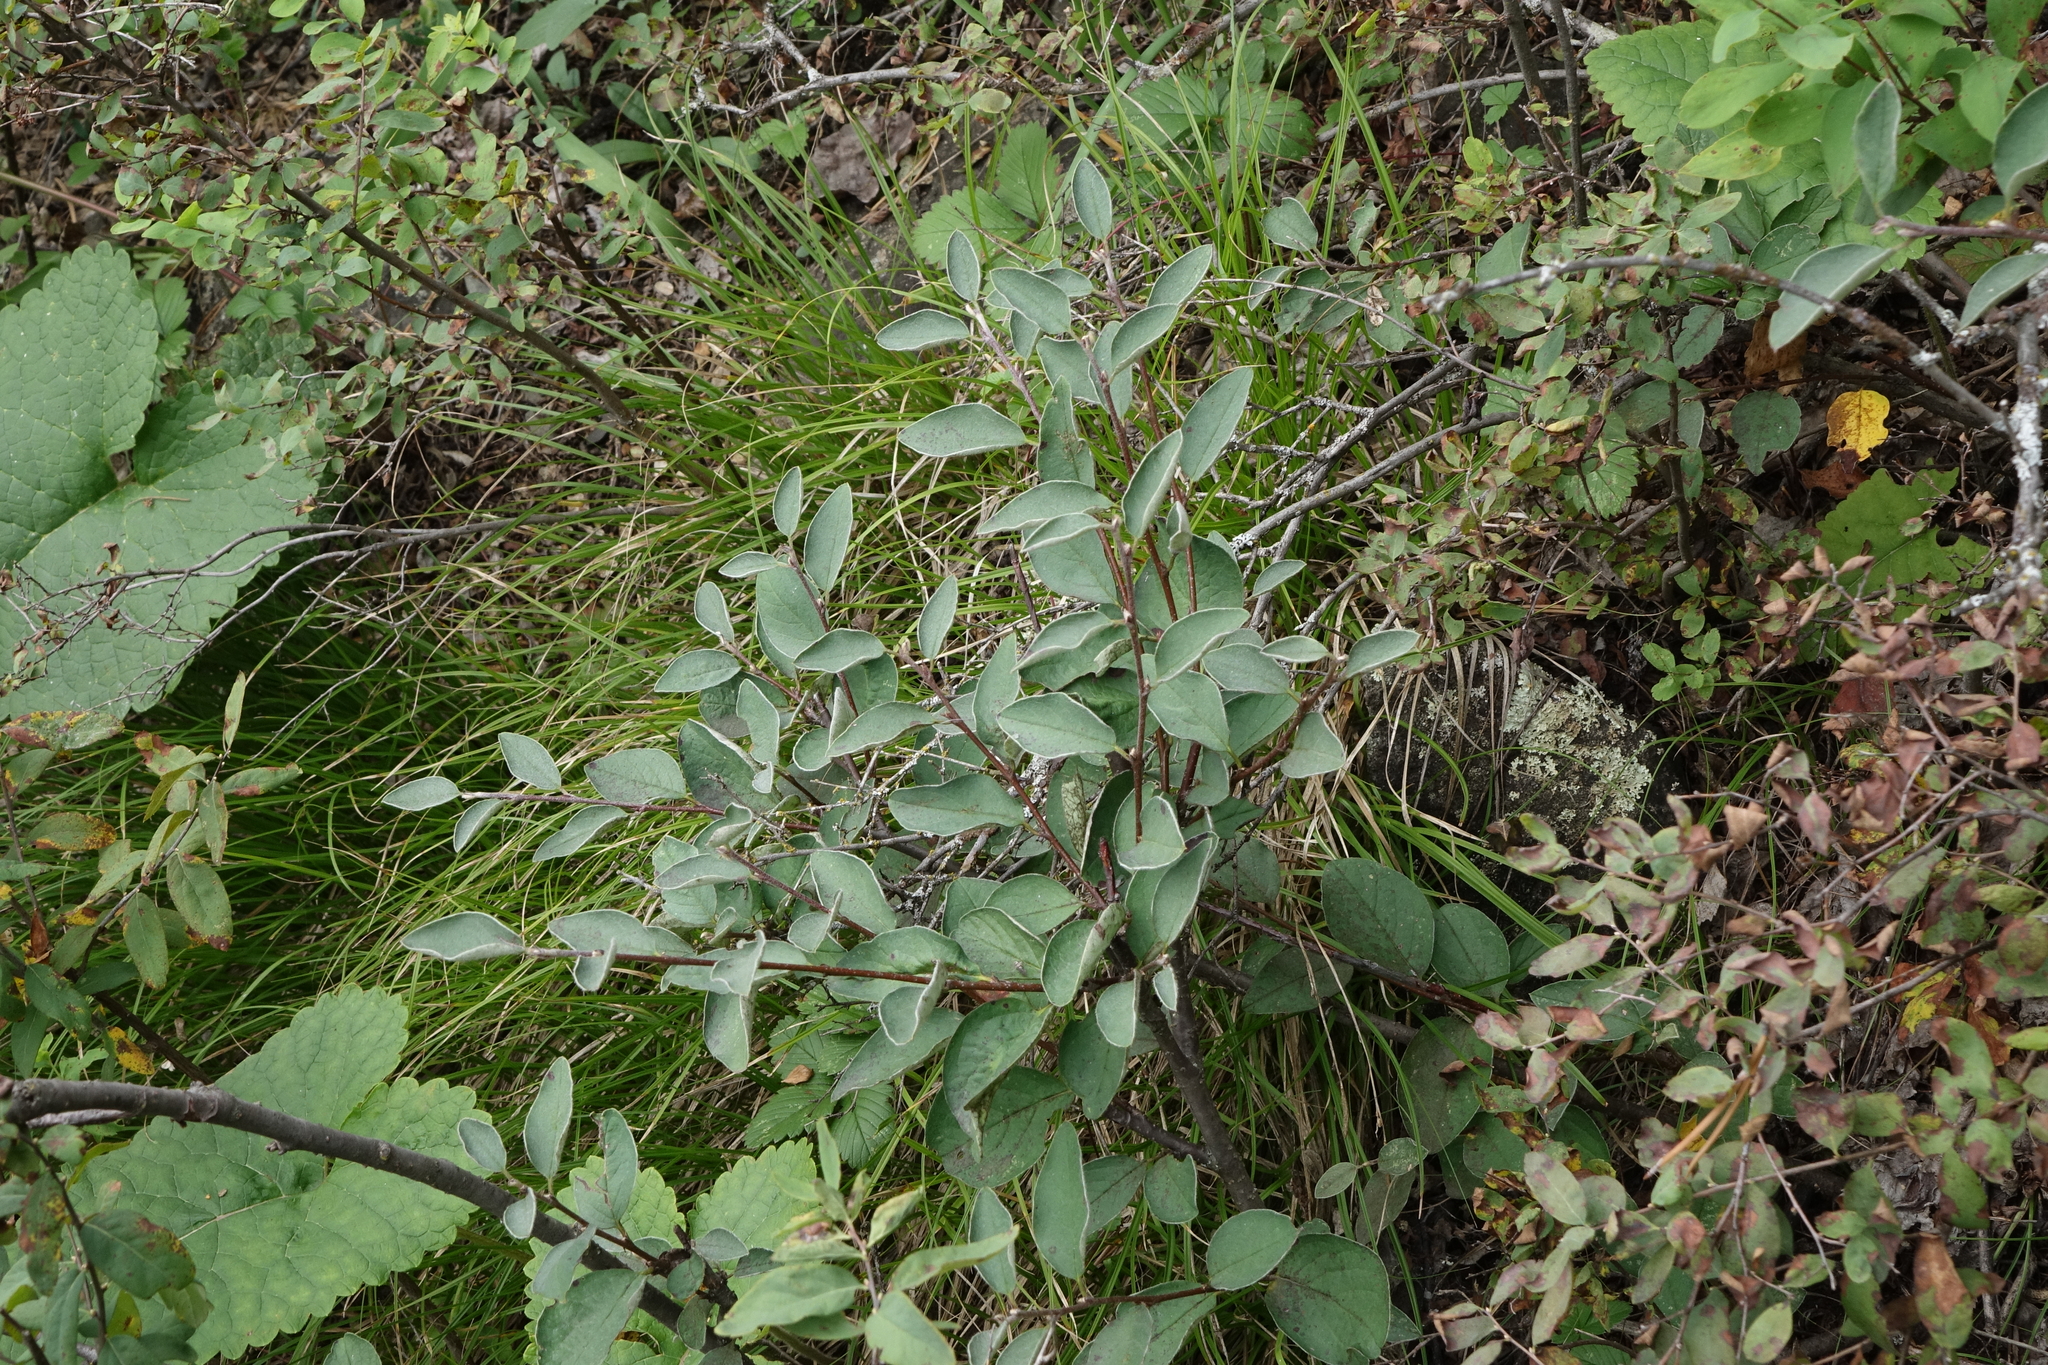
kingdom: Plantae
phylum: Tracheophyta
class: Magnoliopsida
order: Rosales
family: Rosaceae
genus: Cotoneaster
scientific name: Cotoneaster melanocarpus
